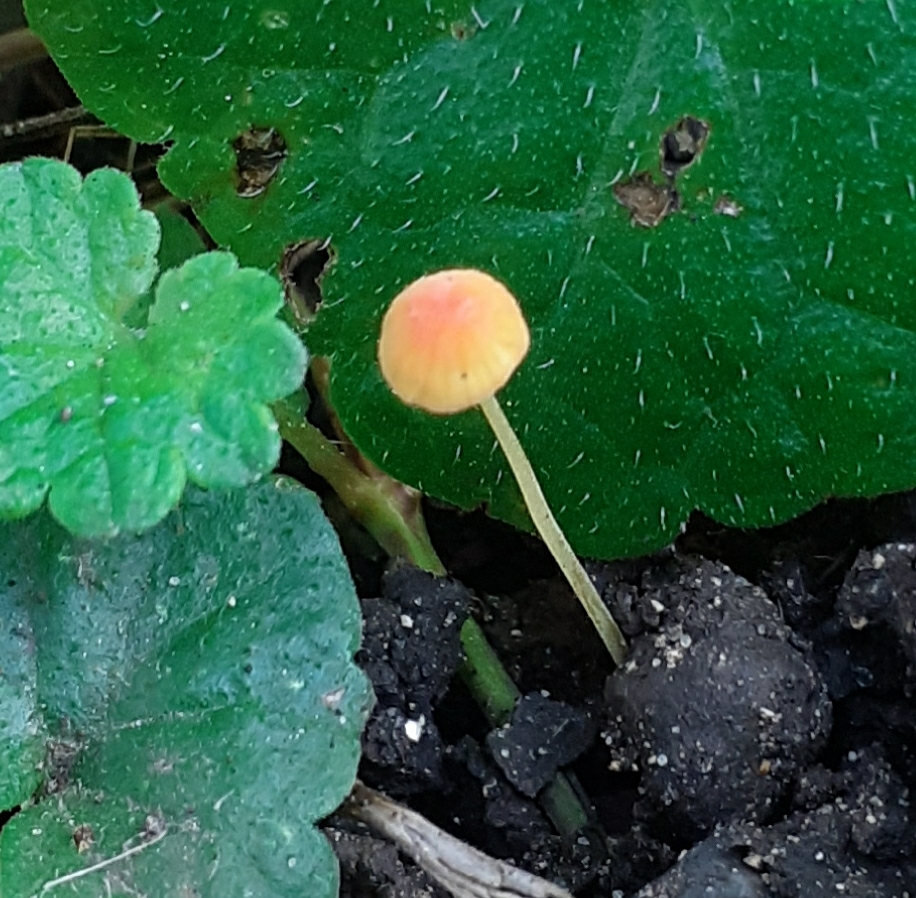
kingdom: Fungi
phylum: Basidiomycota
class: Agaricomycetes
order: Agaricales
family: Mycenaceae
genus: Mycena
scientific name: Mycena acicula
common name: Orange bonnet
